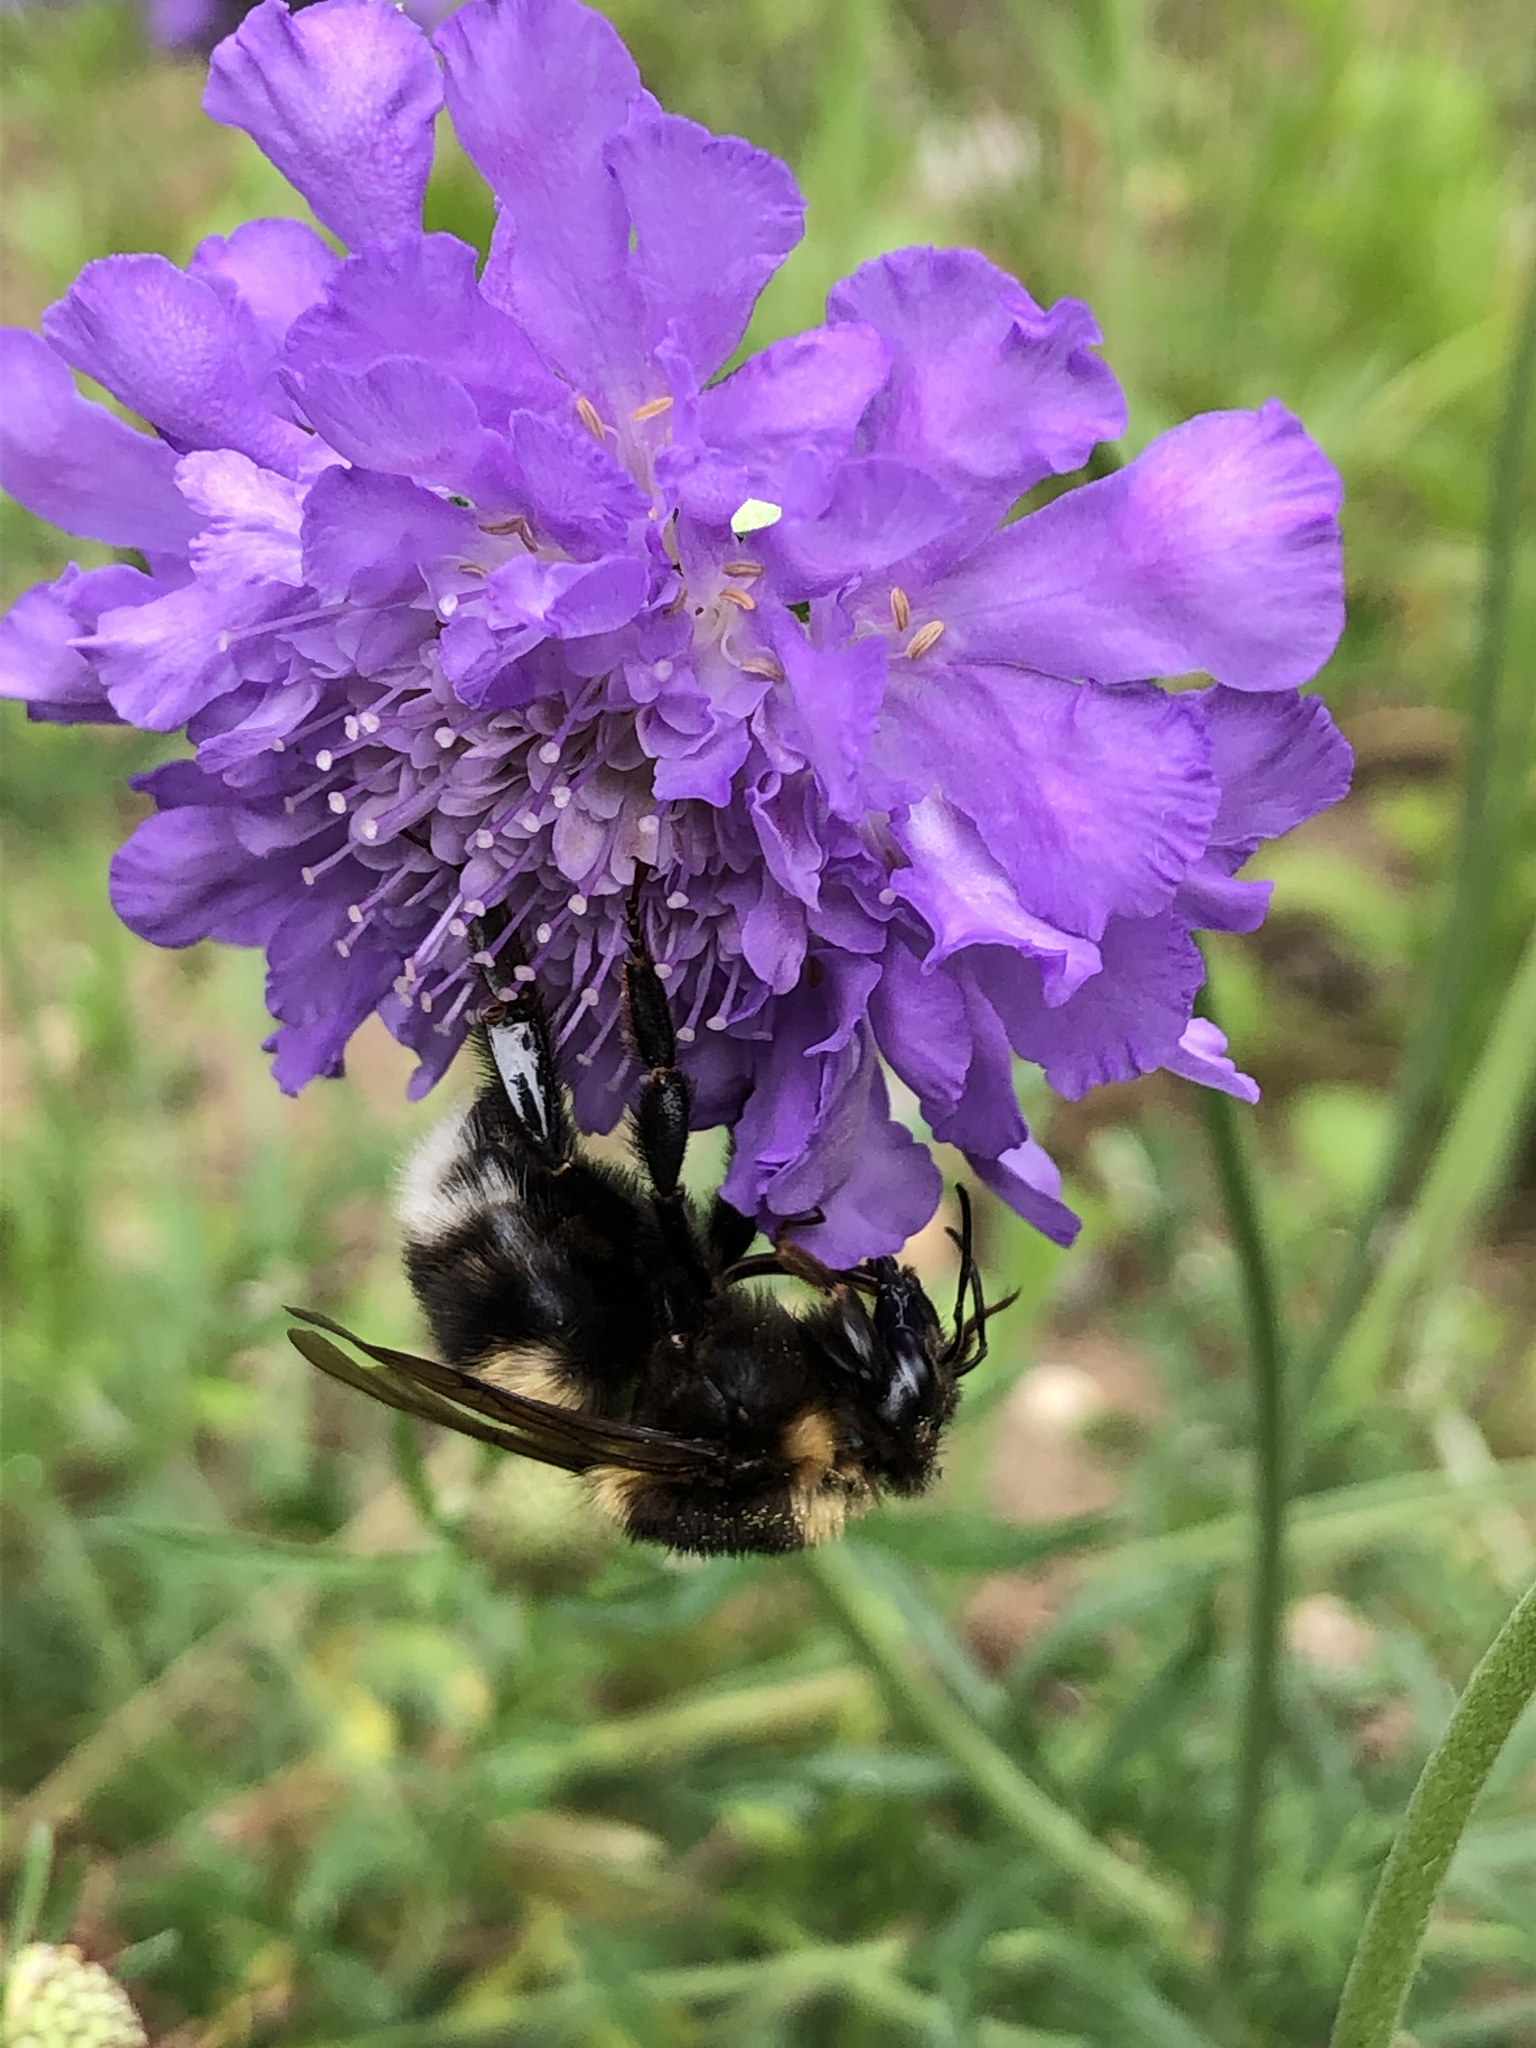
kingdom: Animalia
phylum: Arthropoda
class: Insecta
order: Hymenoptera
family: Apidae
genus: Bombus
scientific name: Bombus hortorum
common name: Garden bumblebee
